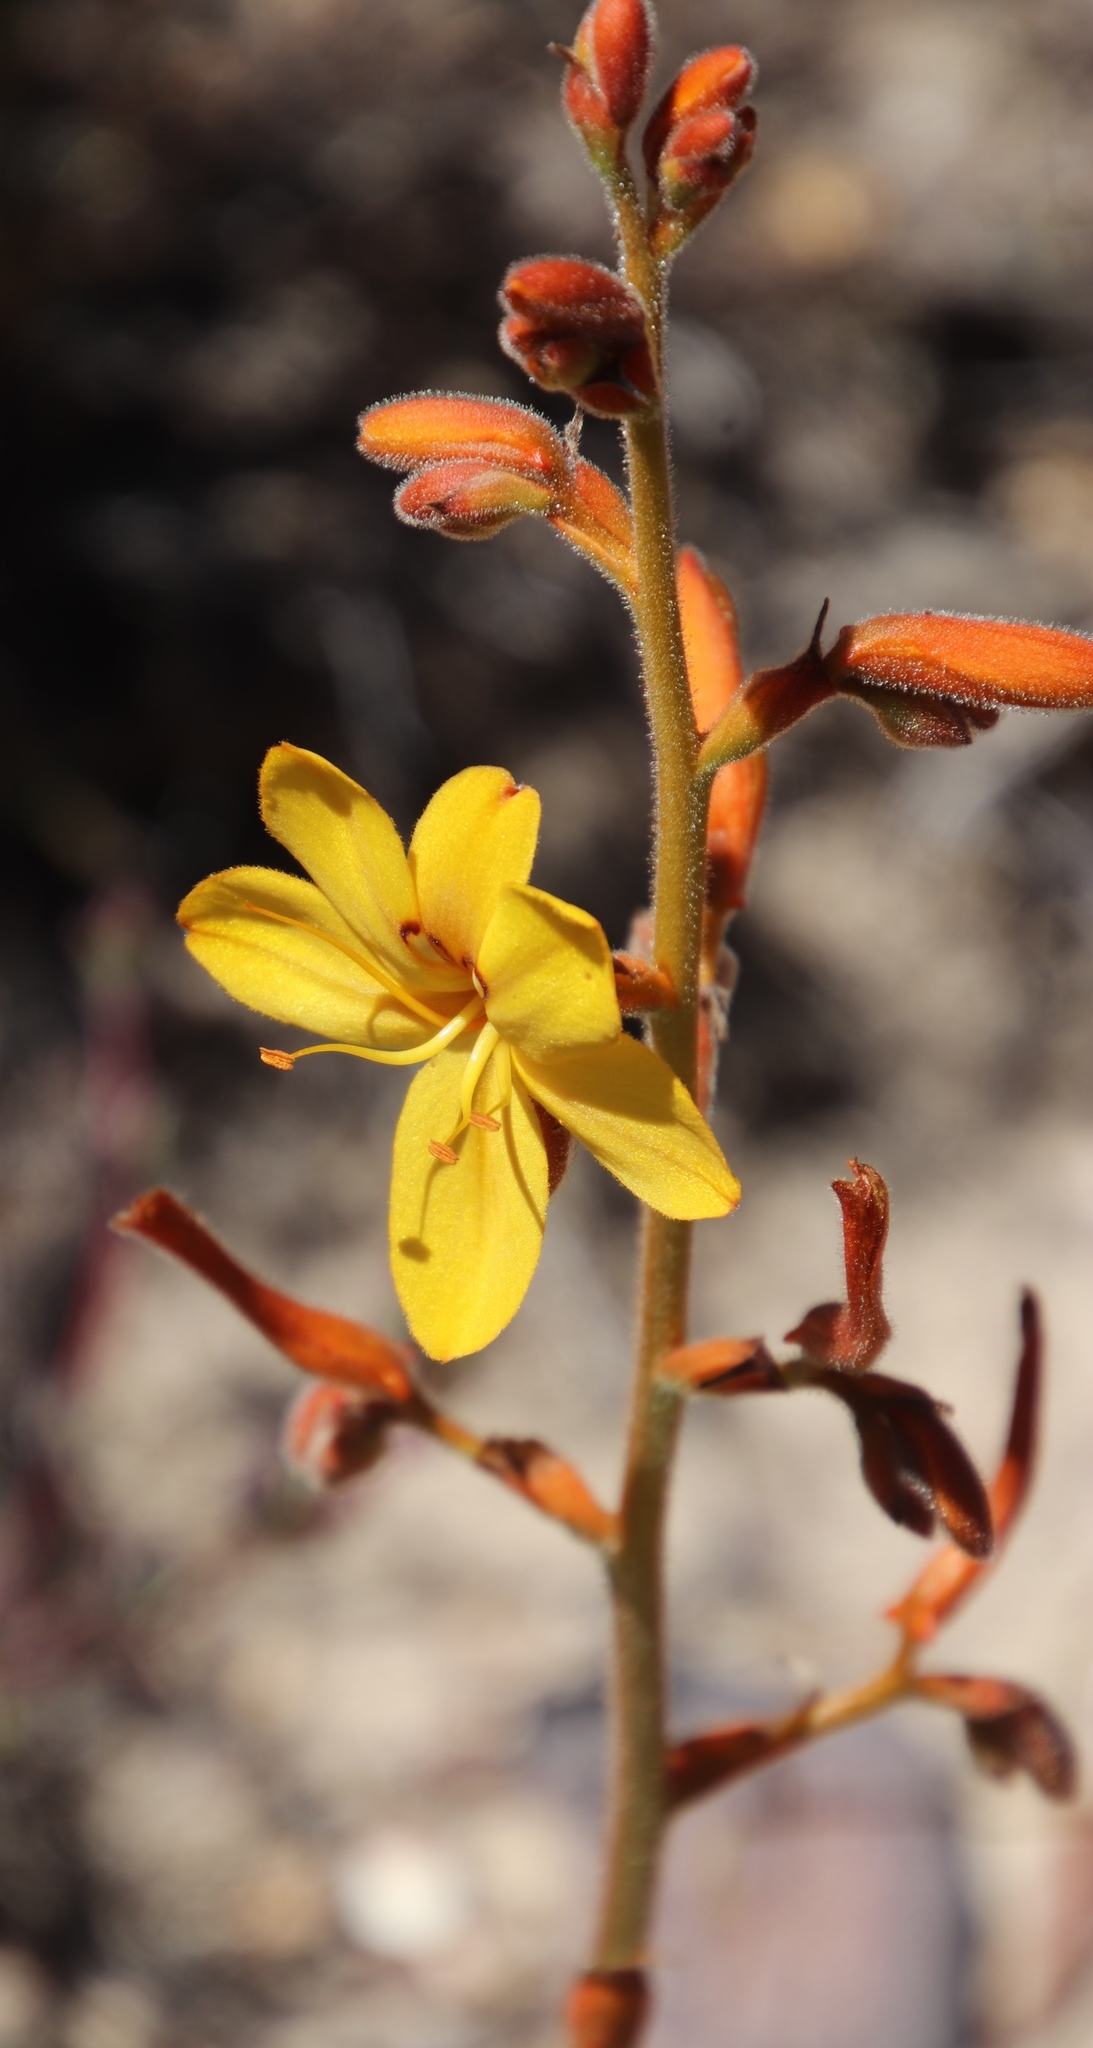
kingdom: Plantae
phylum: Tracheophyta
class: Liliopsida
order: Commelinales
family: Haemodoraceae
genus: Wachendorfia
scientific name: Wachendorfia paniculata
